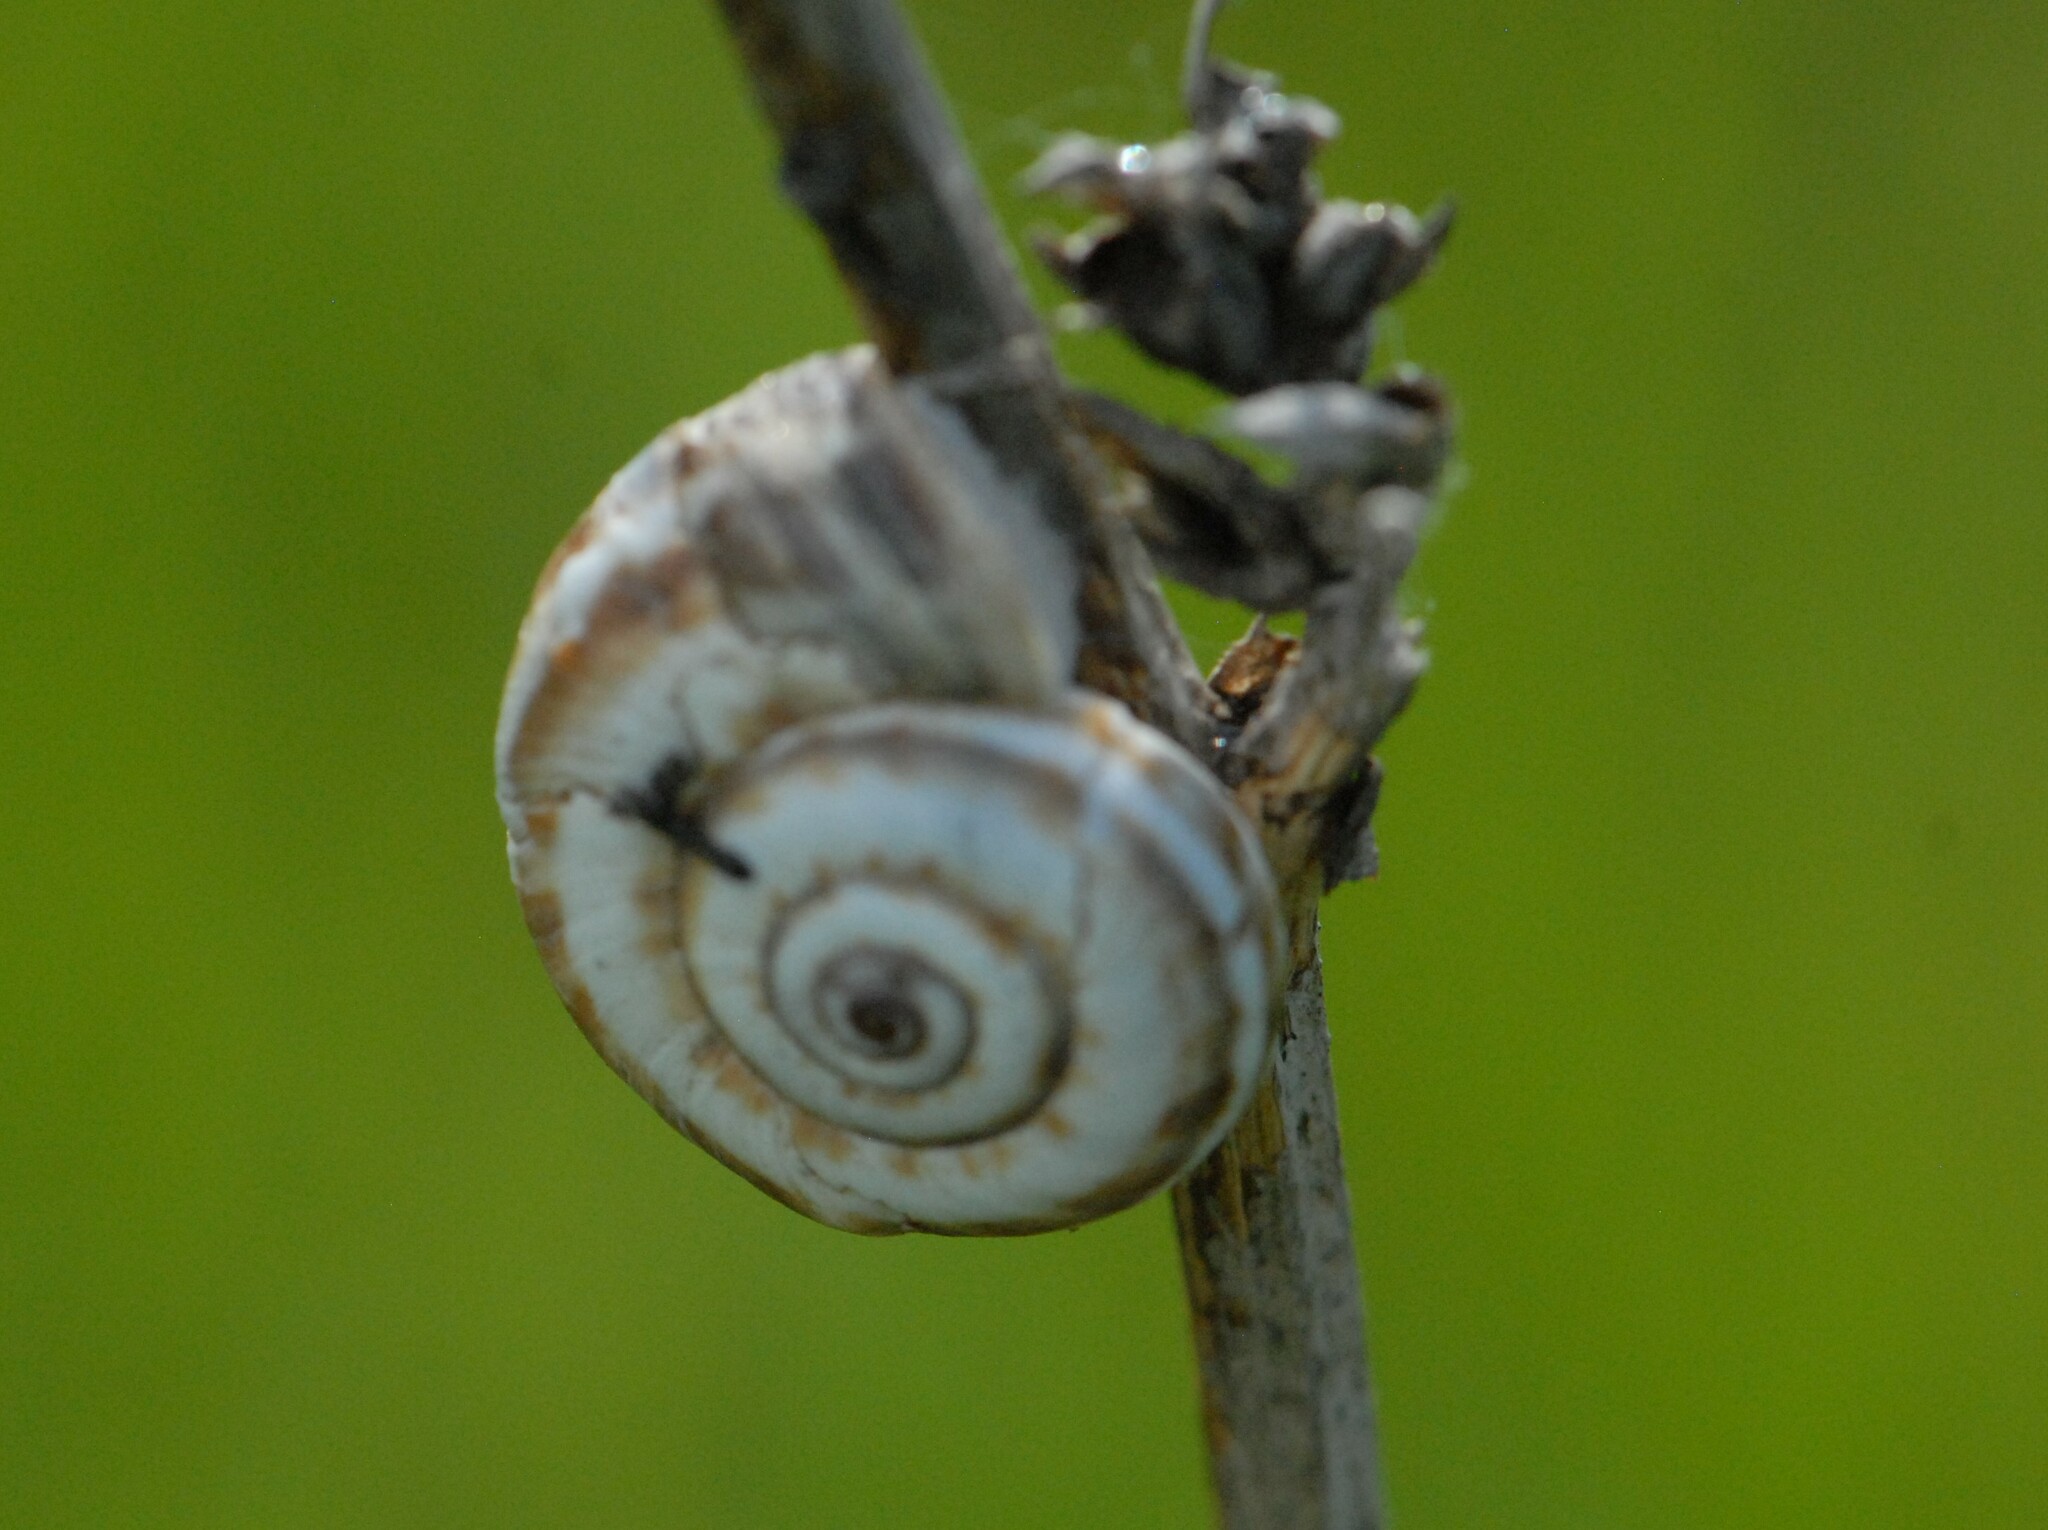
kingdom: Animalia
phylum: Mollusca
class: Gastropoda
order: Stylommatophora
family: Geomitridae
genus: Xeropicta
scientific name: Xeropicta derbentina
